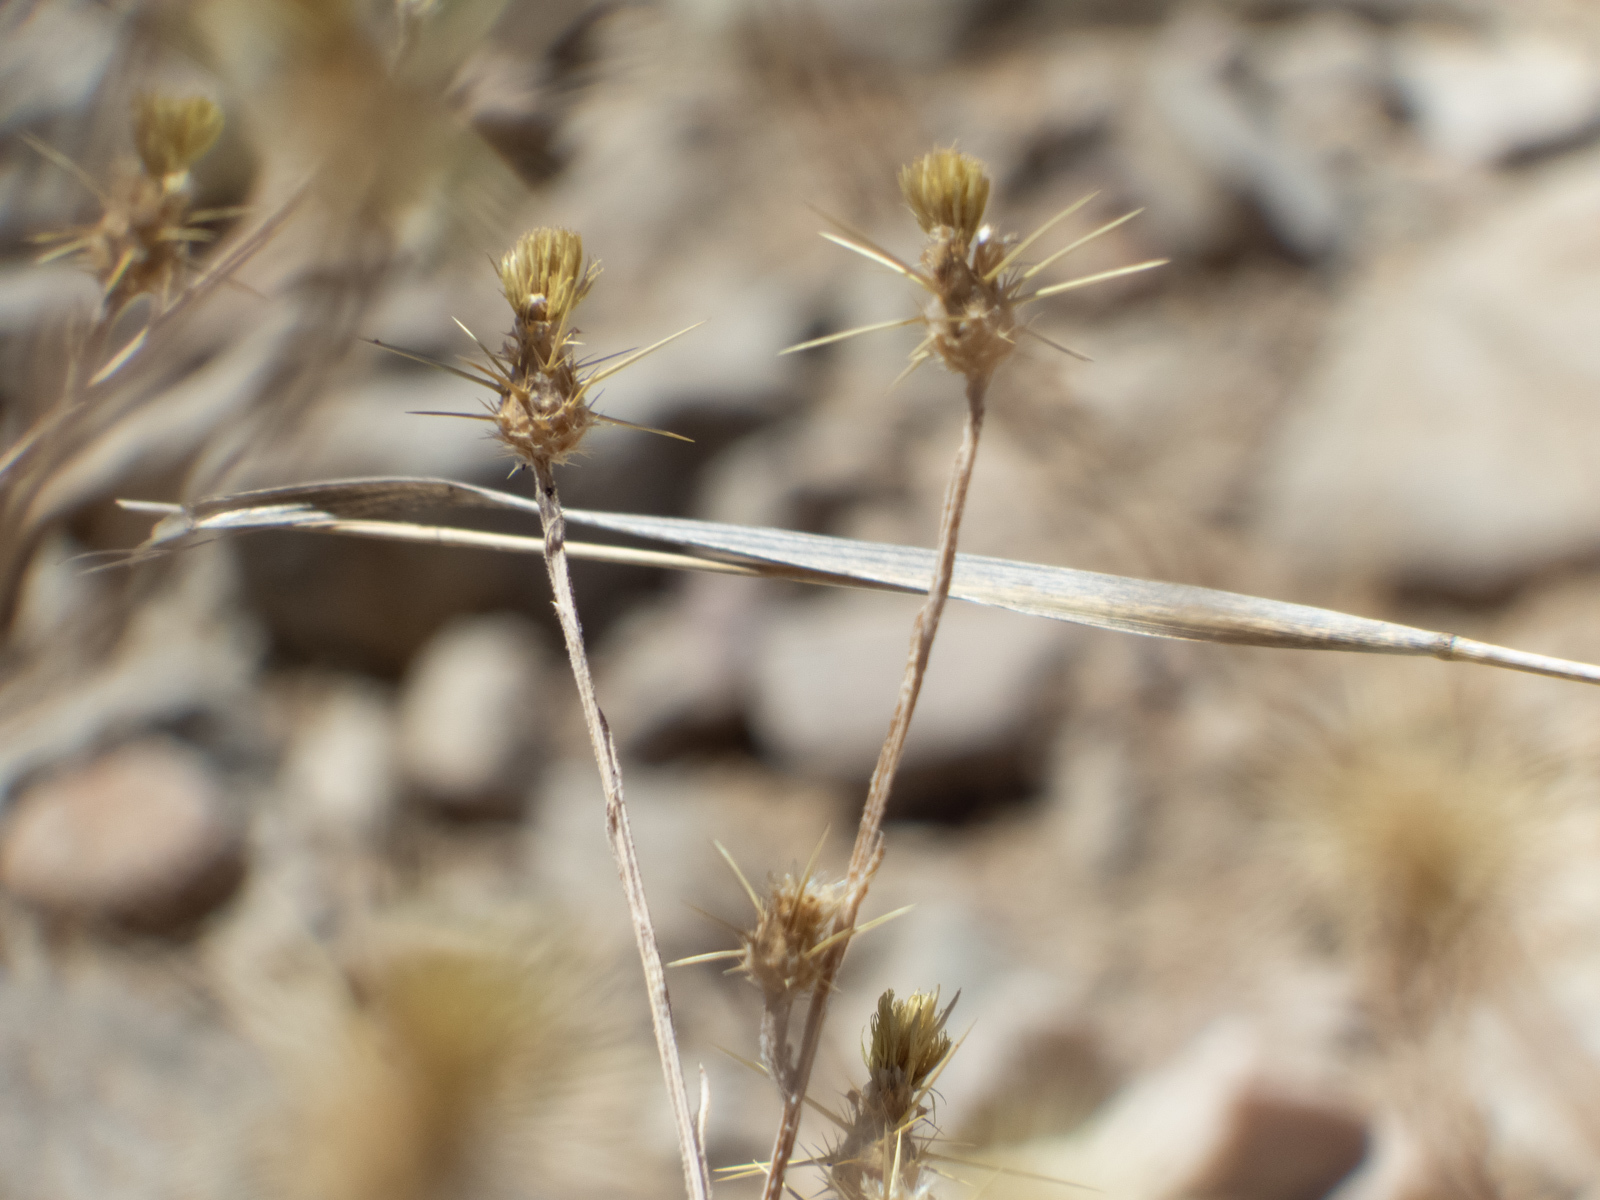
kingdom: Plantae
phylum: Tracheophyta
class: Magnoliopsida
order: Asterales
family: Asteraceae
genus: Centaurea
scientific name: Centaurea solstitialis
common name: Yellow star-thistle
